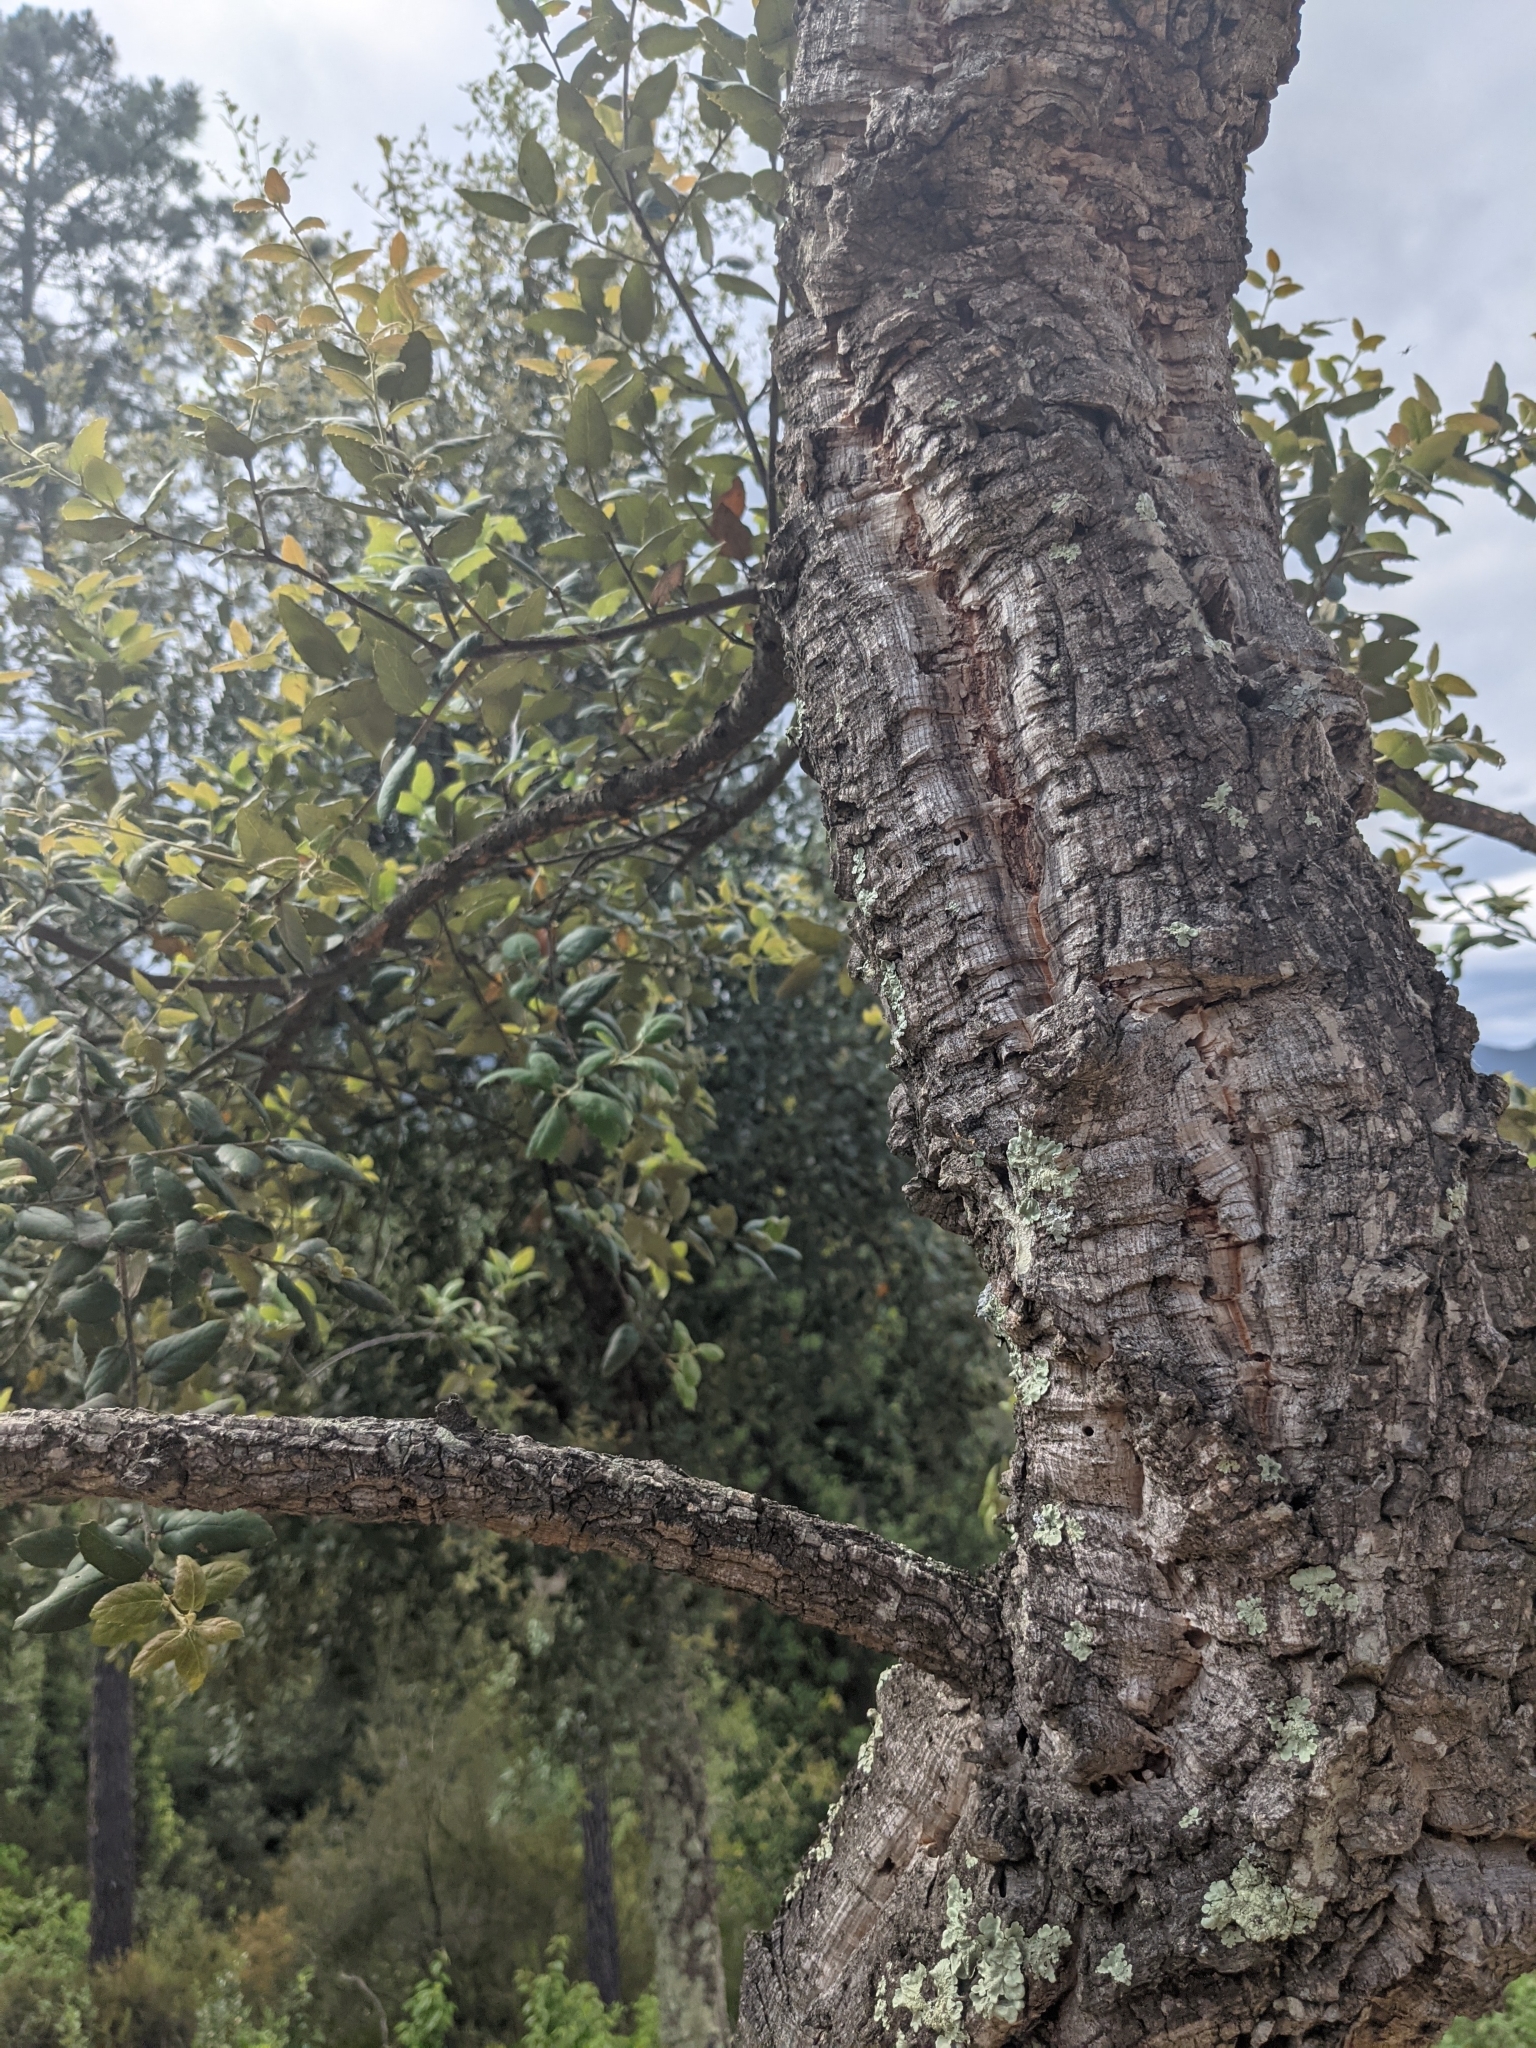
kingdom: Plantae
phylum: Tracheophyta
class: Magnoliopsida
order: Fagales
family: Fagaceae
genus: Quercus
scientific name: Quercus suber
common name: Cork oak
